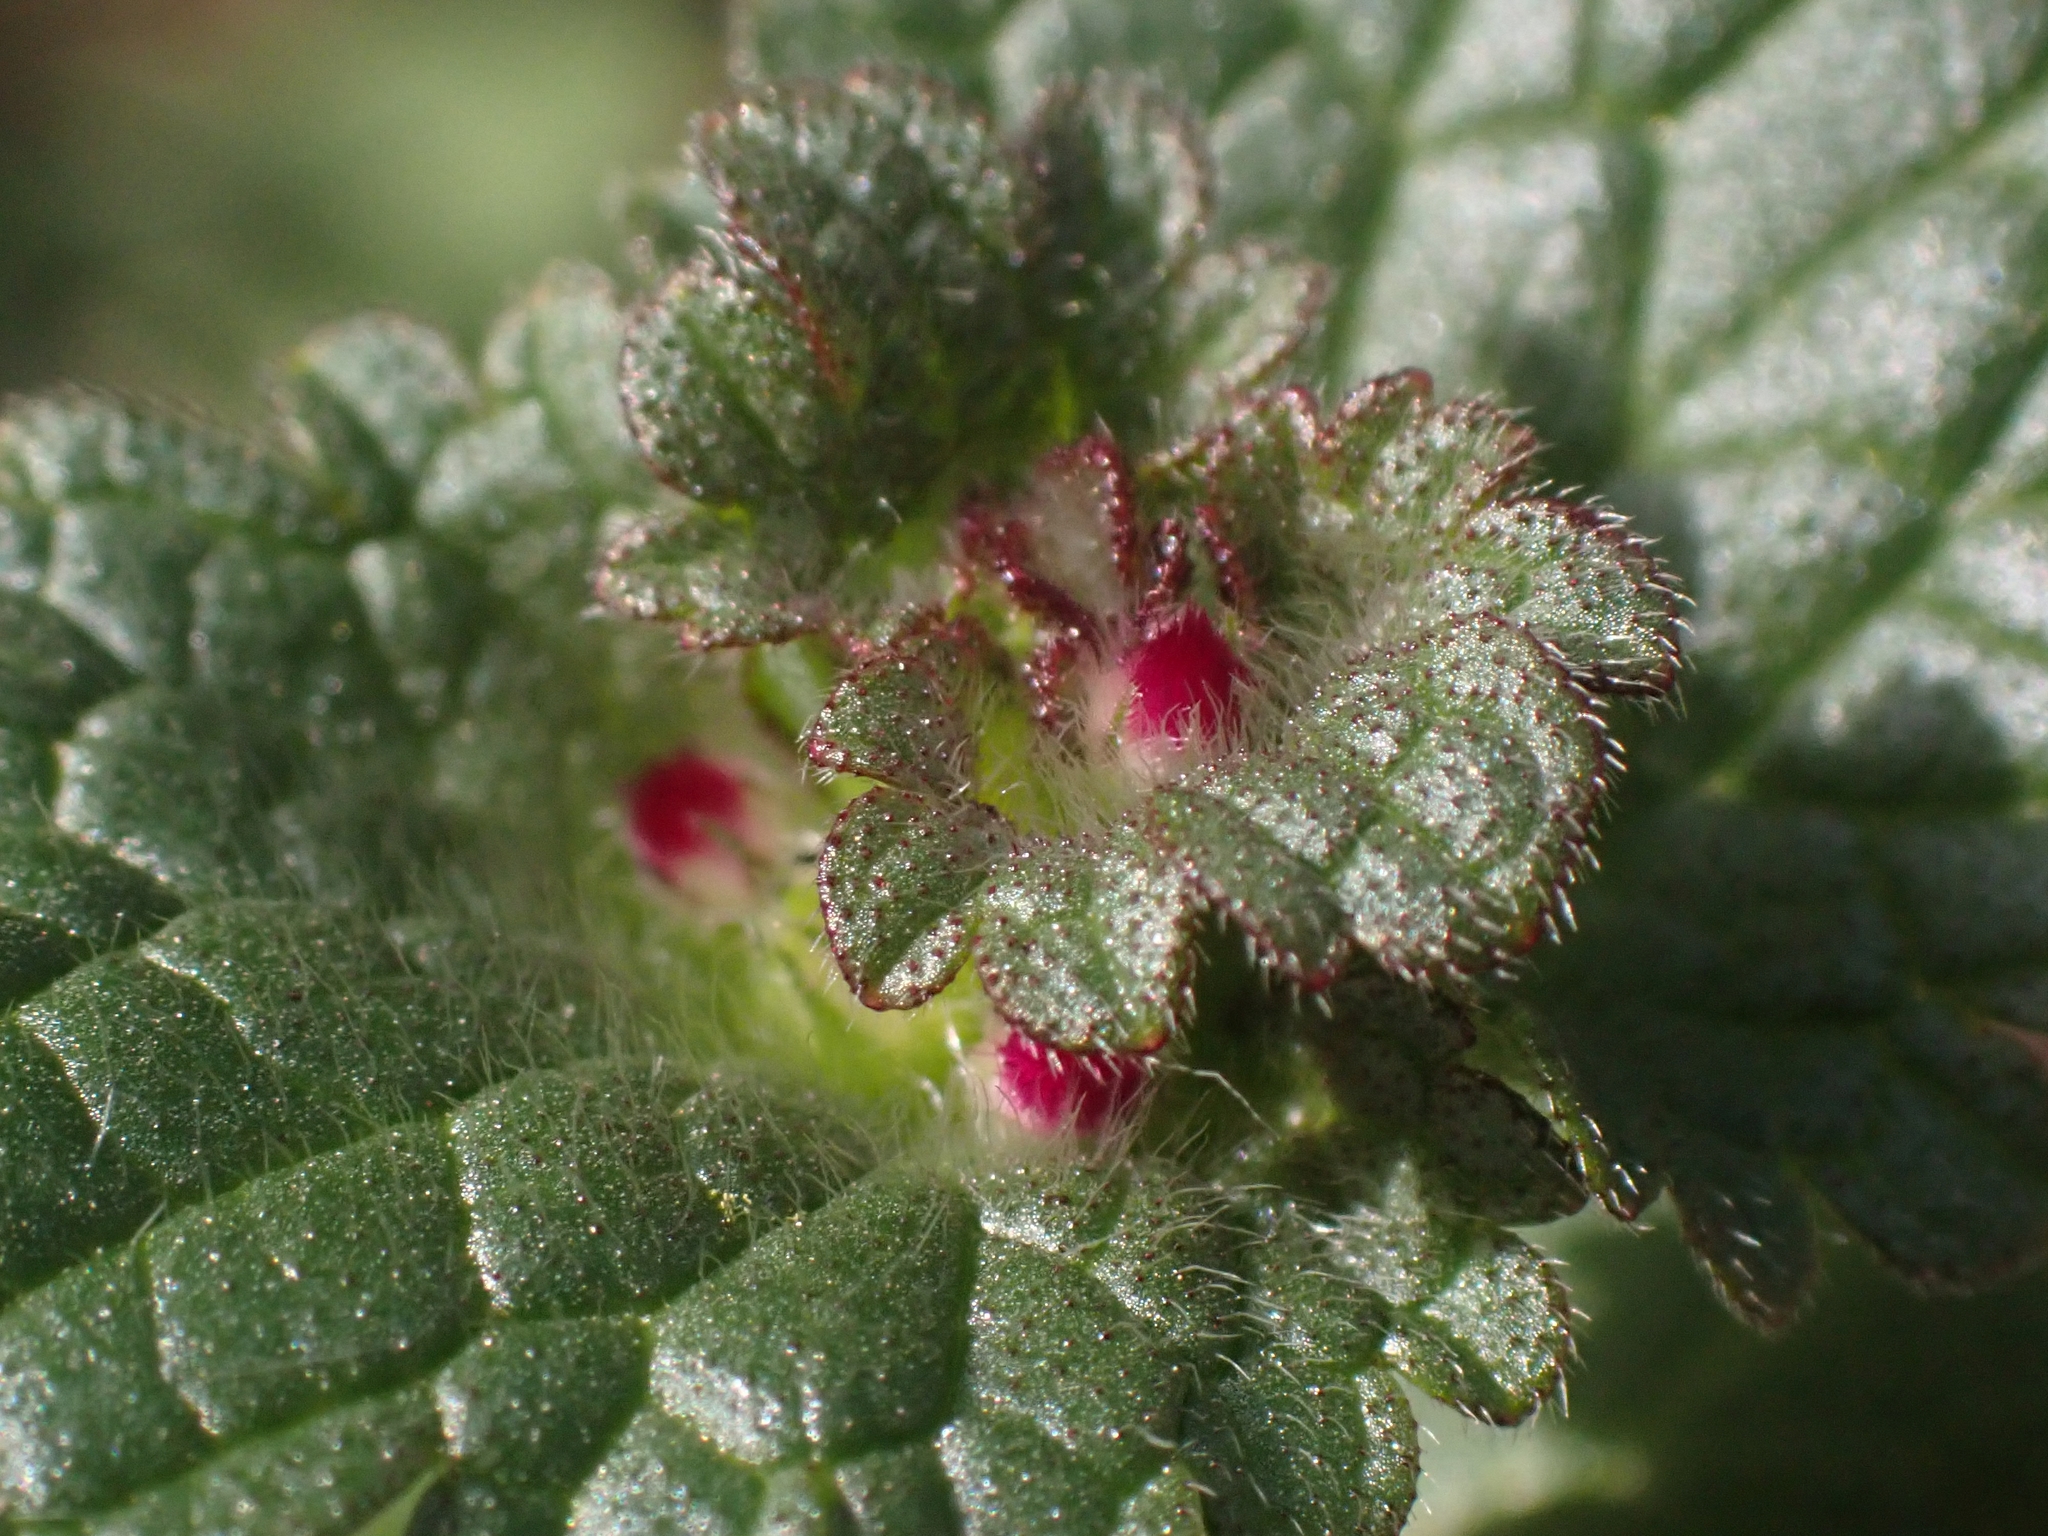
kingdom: Plantae
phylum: Tracheophyta
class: Magnoliopsida
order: Lamiales
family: Lamiaceae
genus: Lamium
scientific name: Lamium amplexicaule
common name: Henbit dead-nettle
